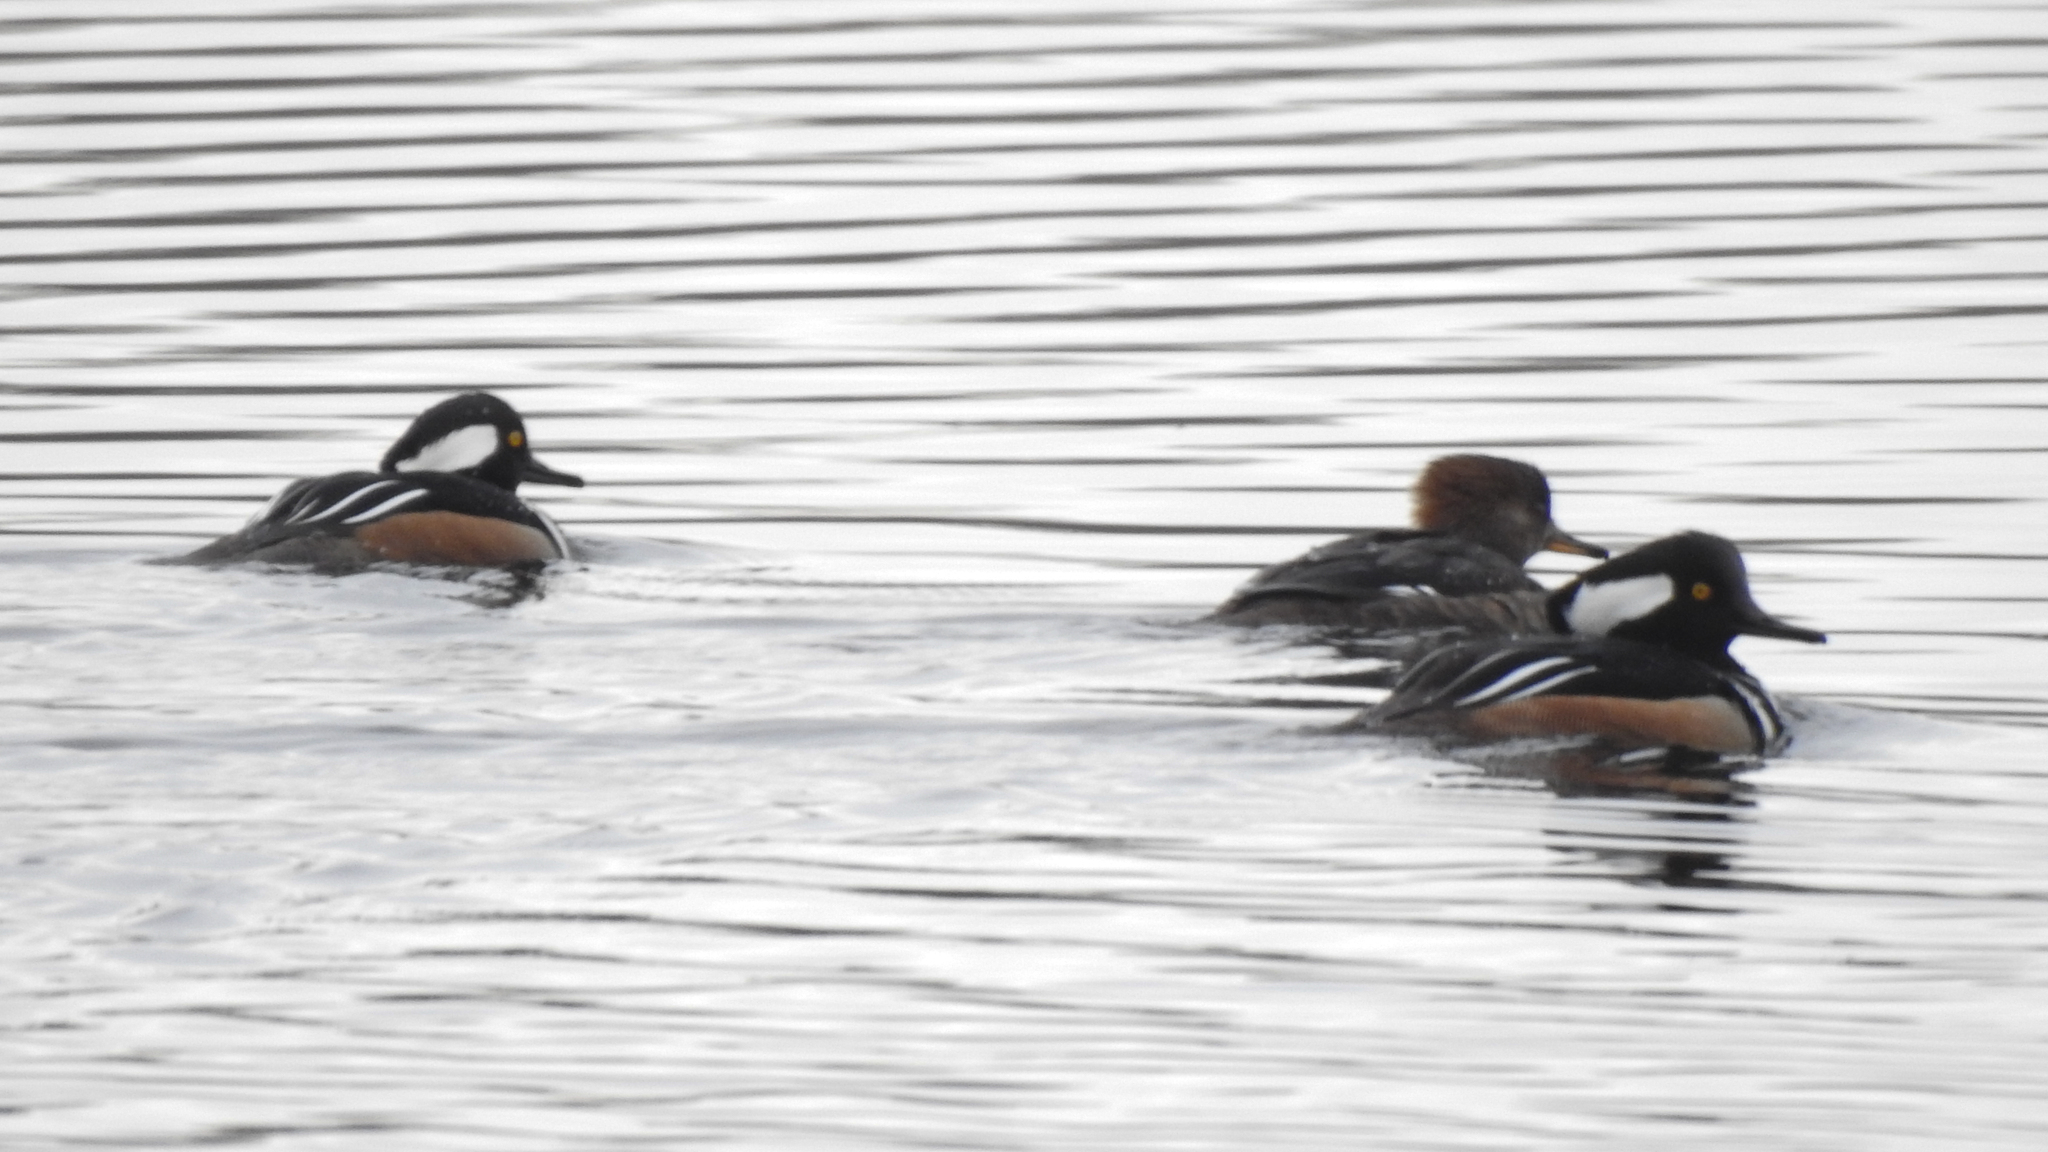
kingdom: Animalia
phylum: Chordata
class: Aves
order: Anseriformes
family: Anatidae
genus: Lophodytes
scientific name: Lophodytes cucullatus
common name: Hooded merganser
